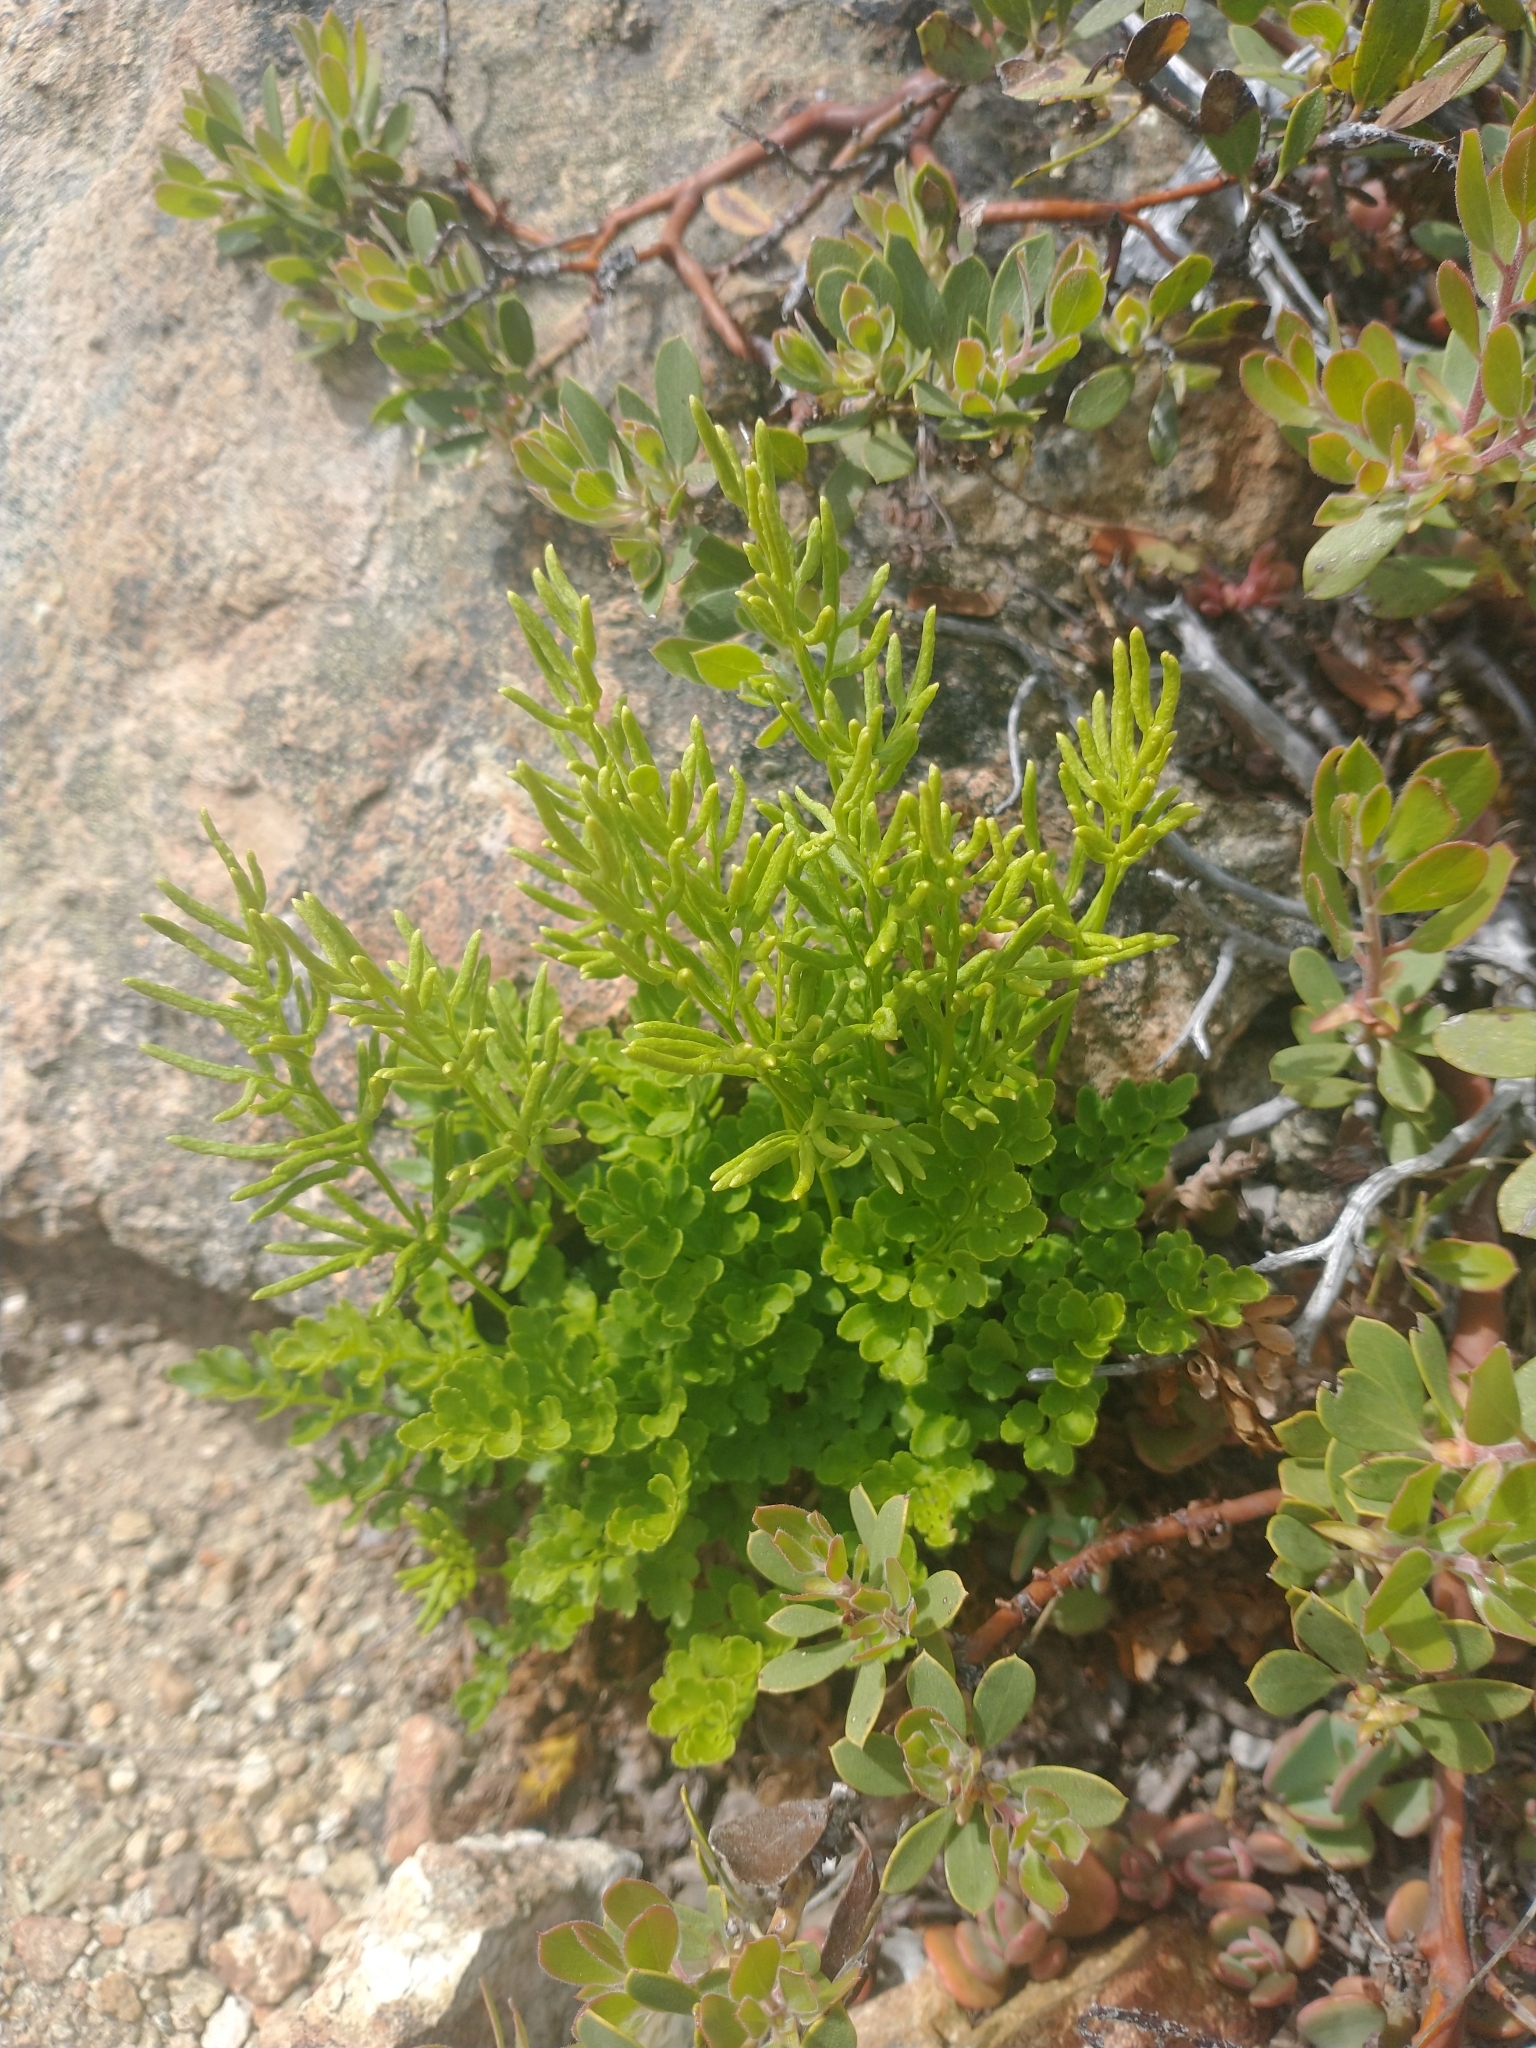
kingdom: Plantae
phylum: Tracheophyta
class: Polypodiopsida
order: Polypodiales
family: Pteridaceae
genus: Cryptogramma
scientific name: Cryptogramma acrostichoides
